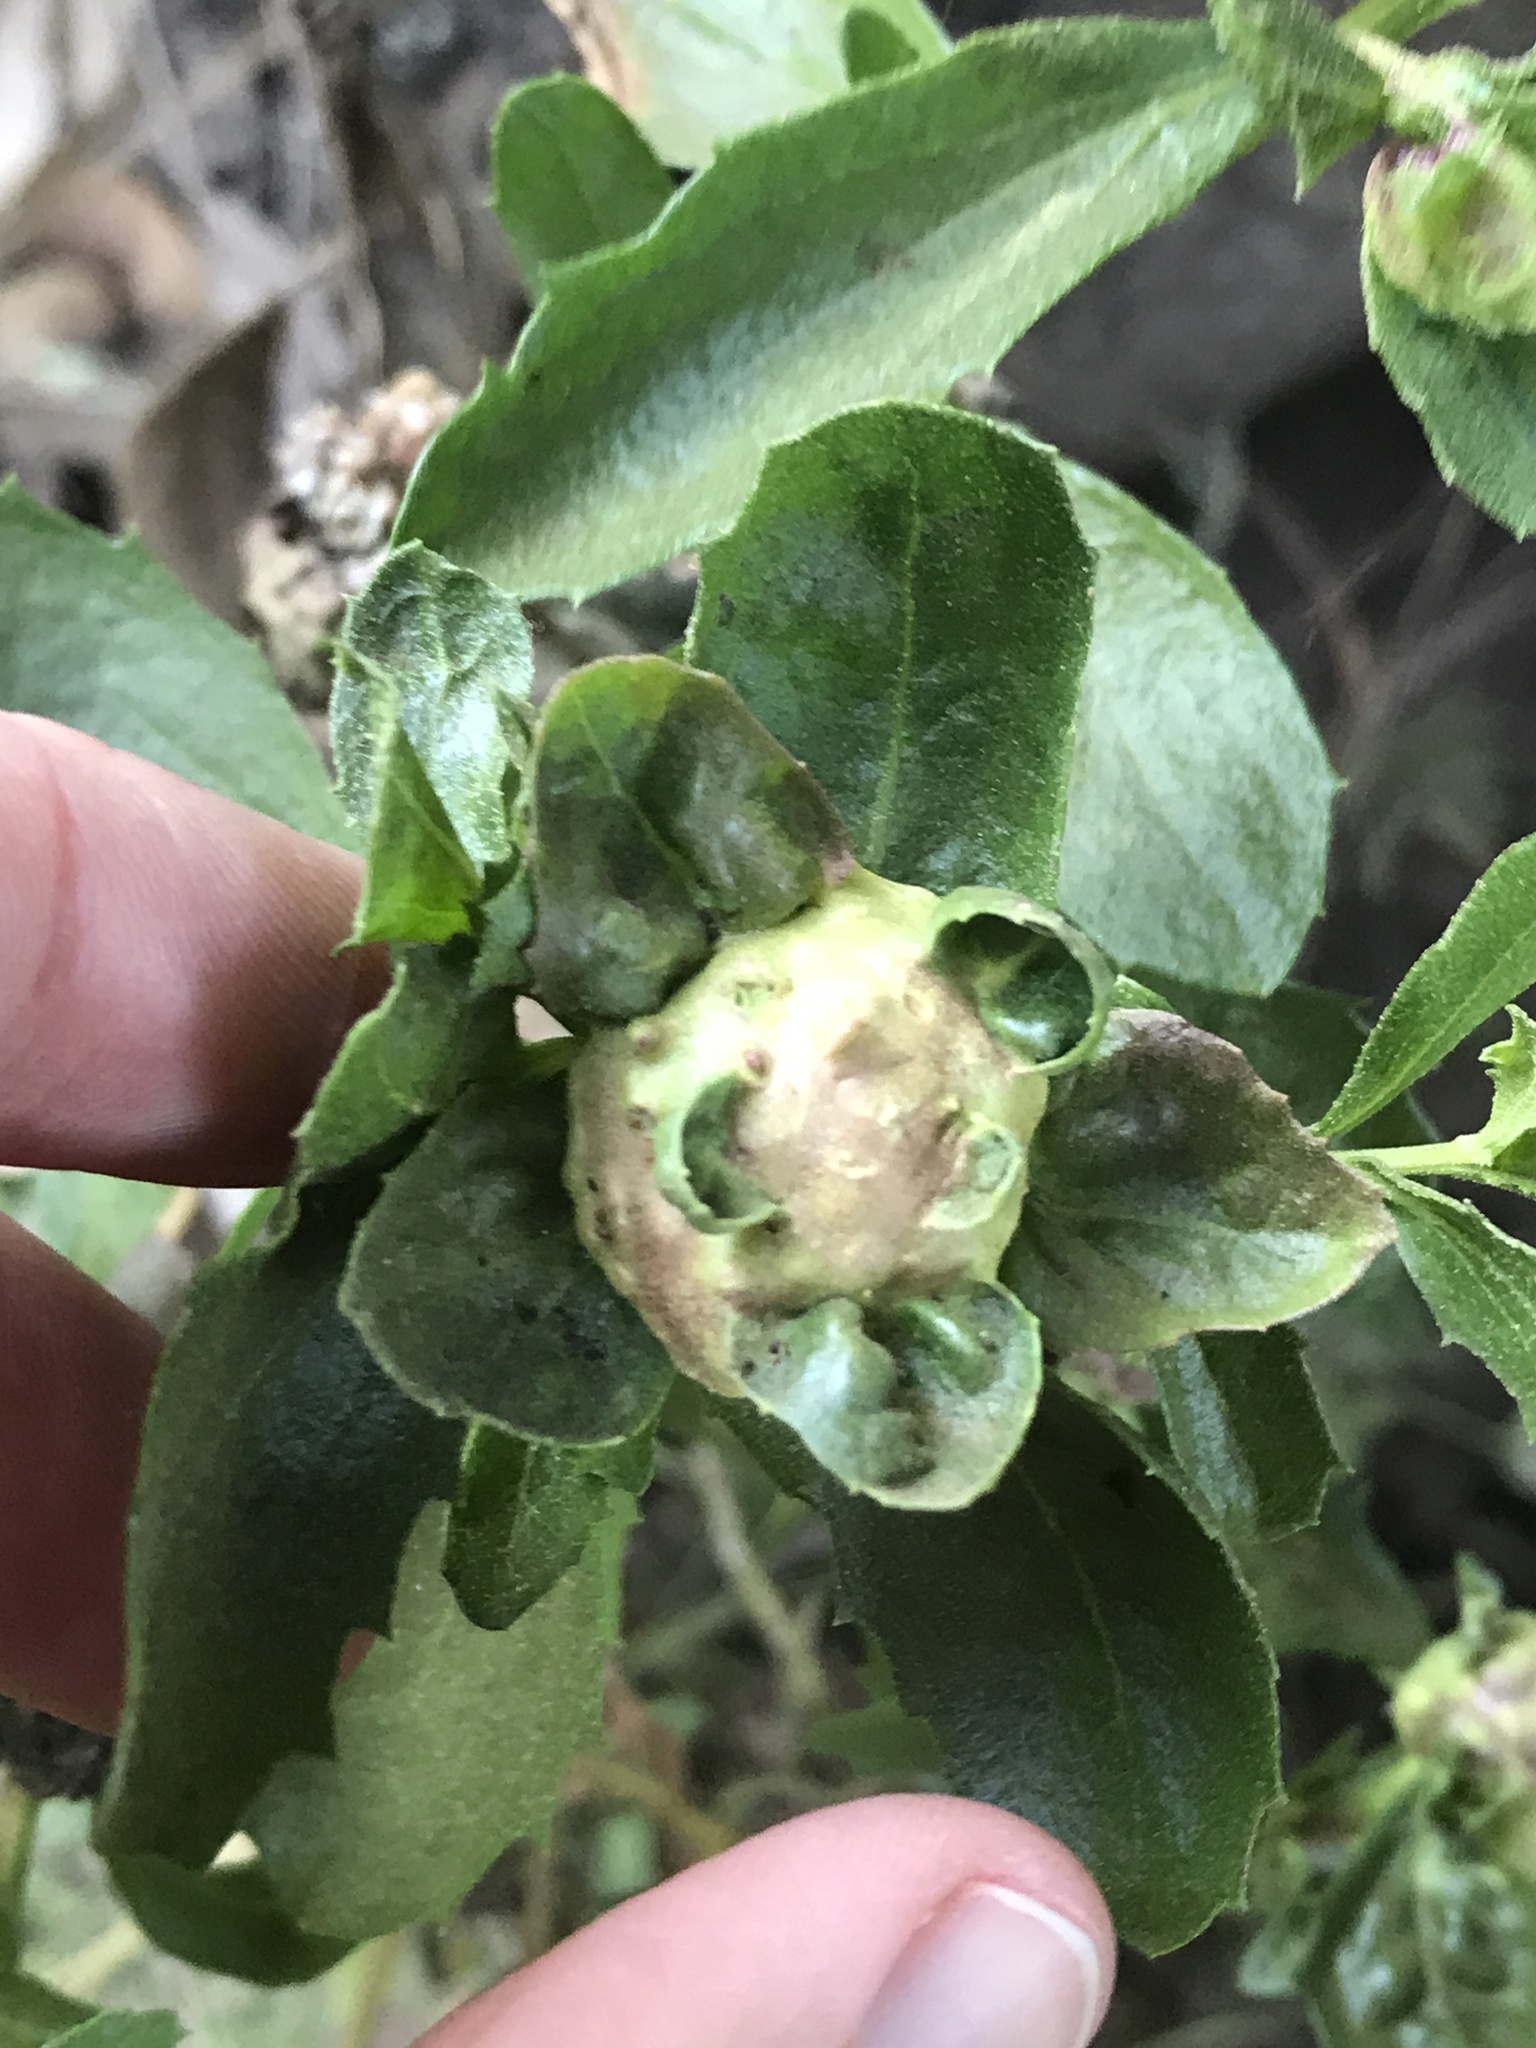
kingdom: Animalia
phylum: Arthropoda
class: Insecta
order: Diptera
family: Cecidomyiidae
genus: Rhopalomyia
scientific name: Rhopalomyia californica
